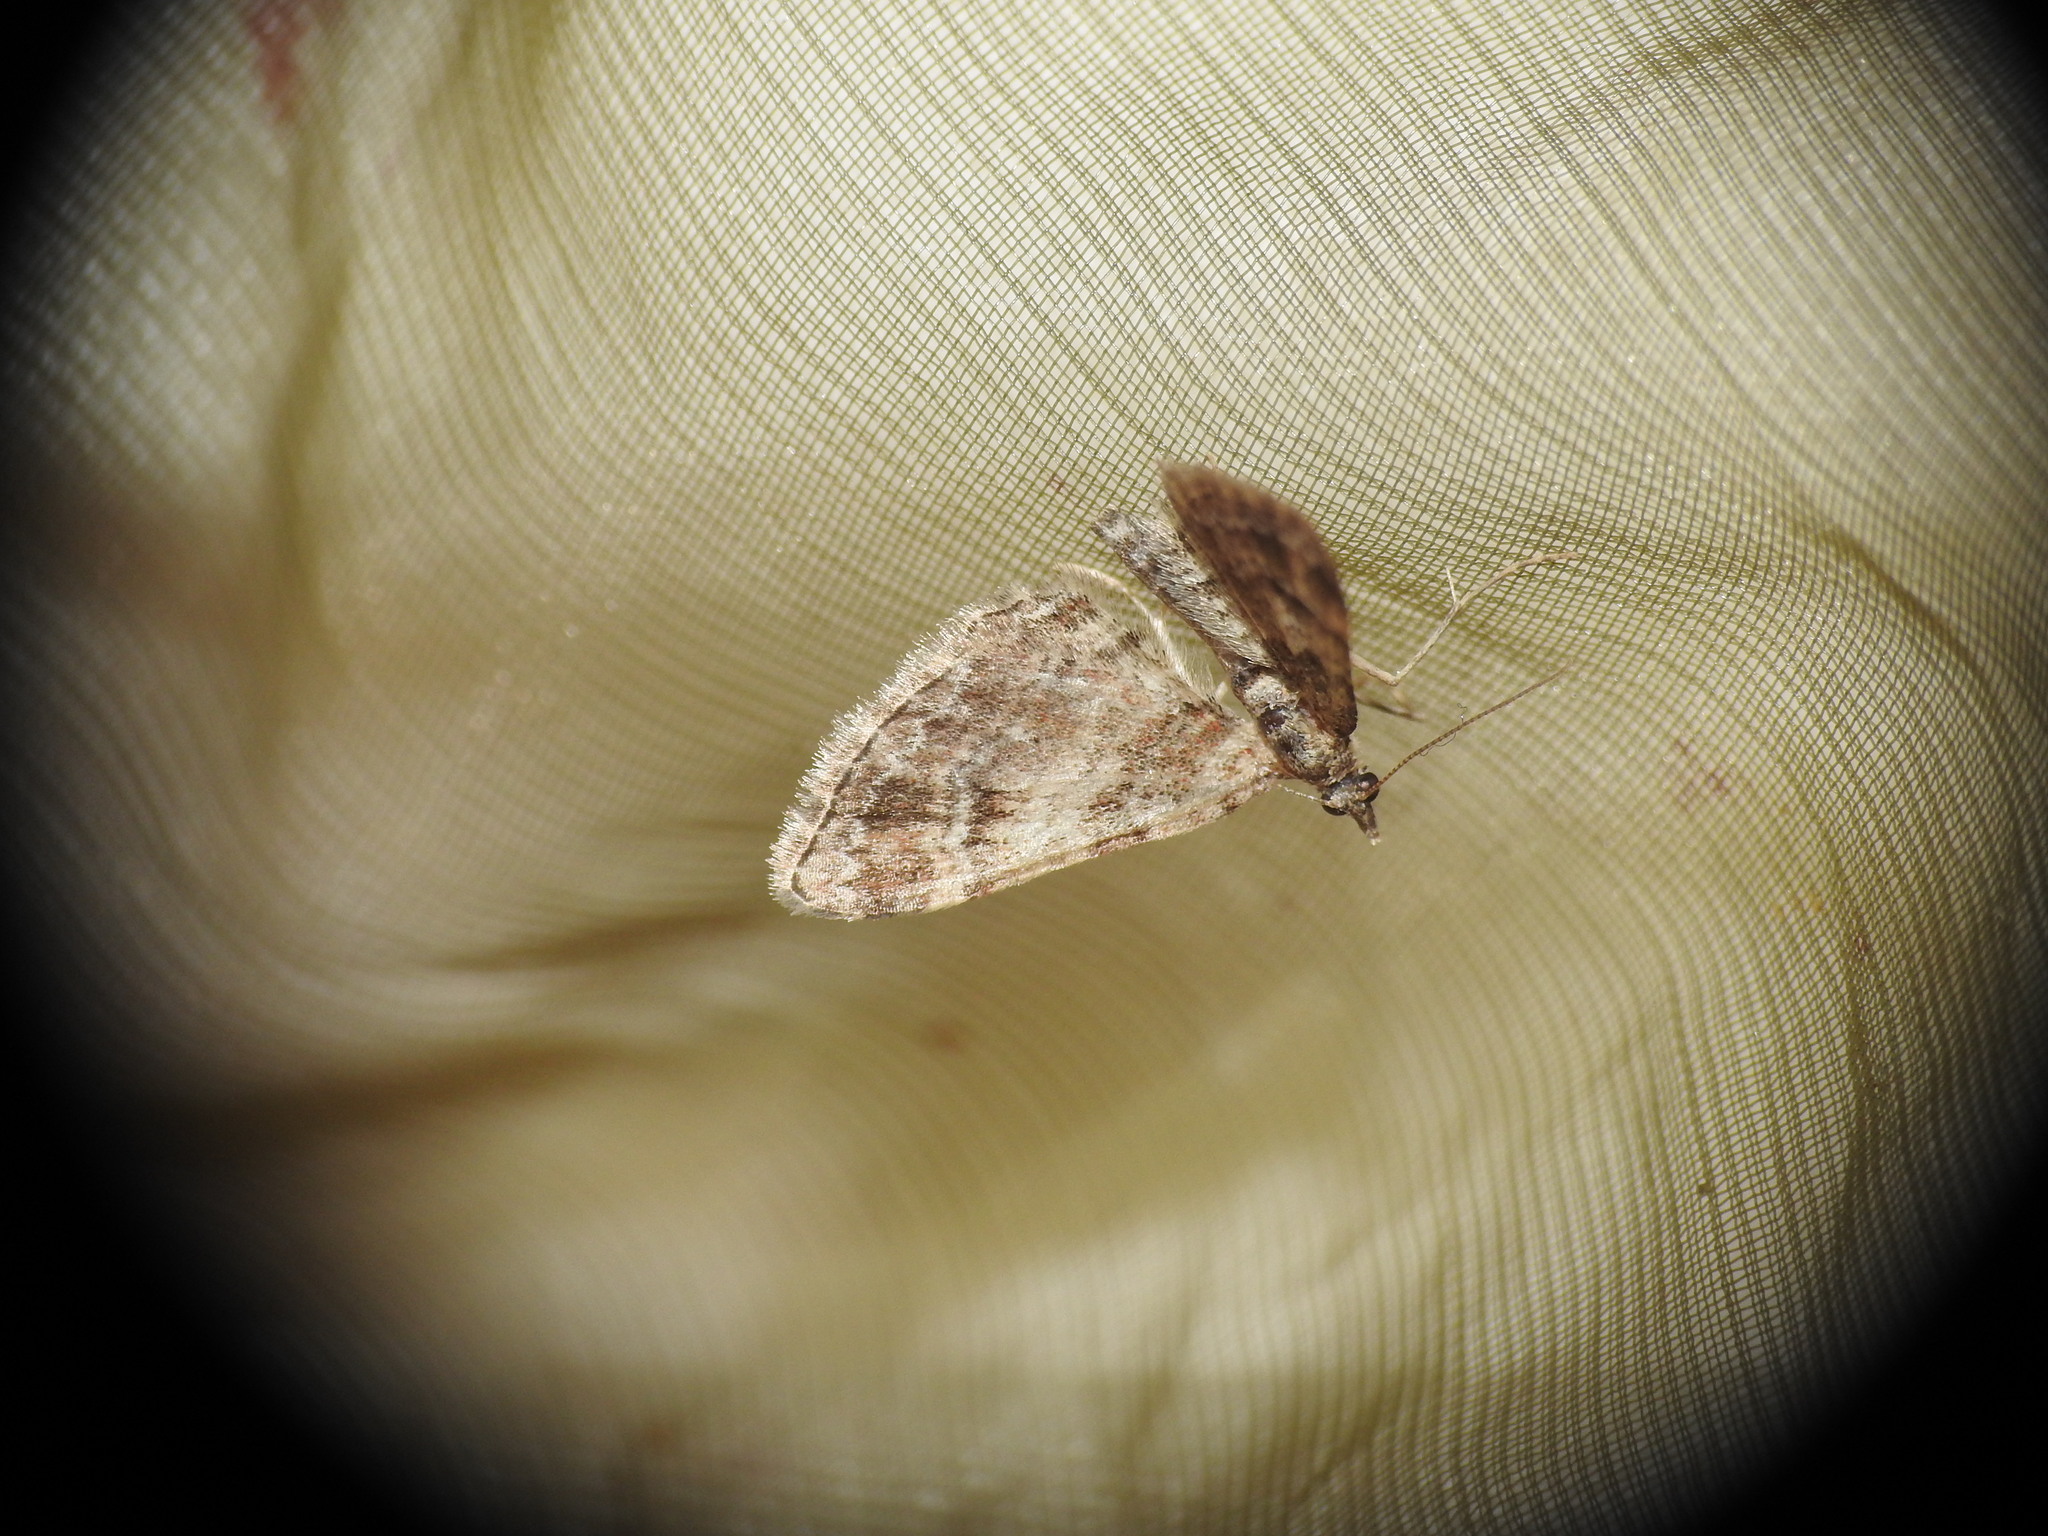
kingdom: Animalia
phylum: Arthropoda
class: Insecta
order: Lepidoptera
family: Geometridae
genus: Gymnoscelis
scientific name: Gymnoscelis rufifasciata
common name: Double-striped pug
